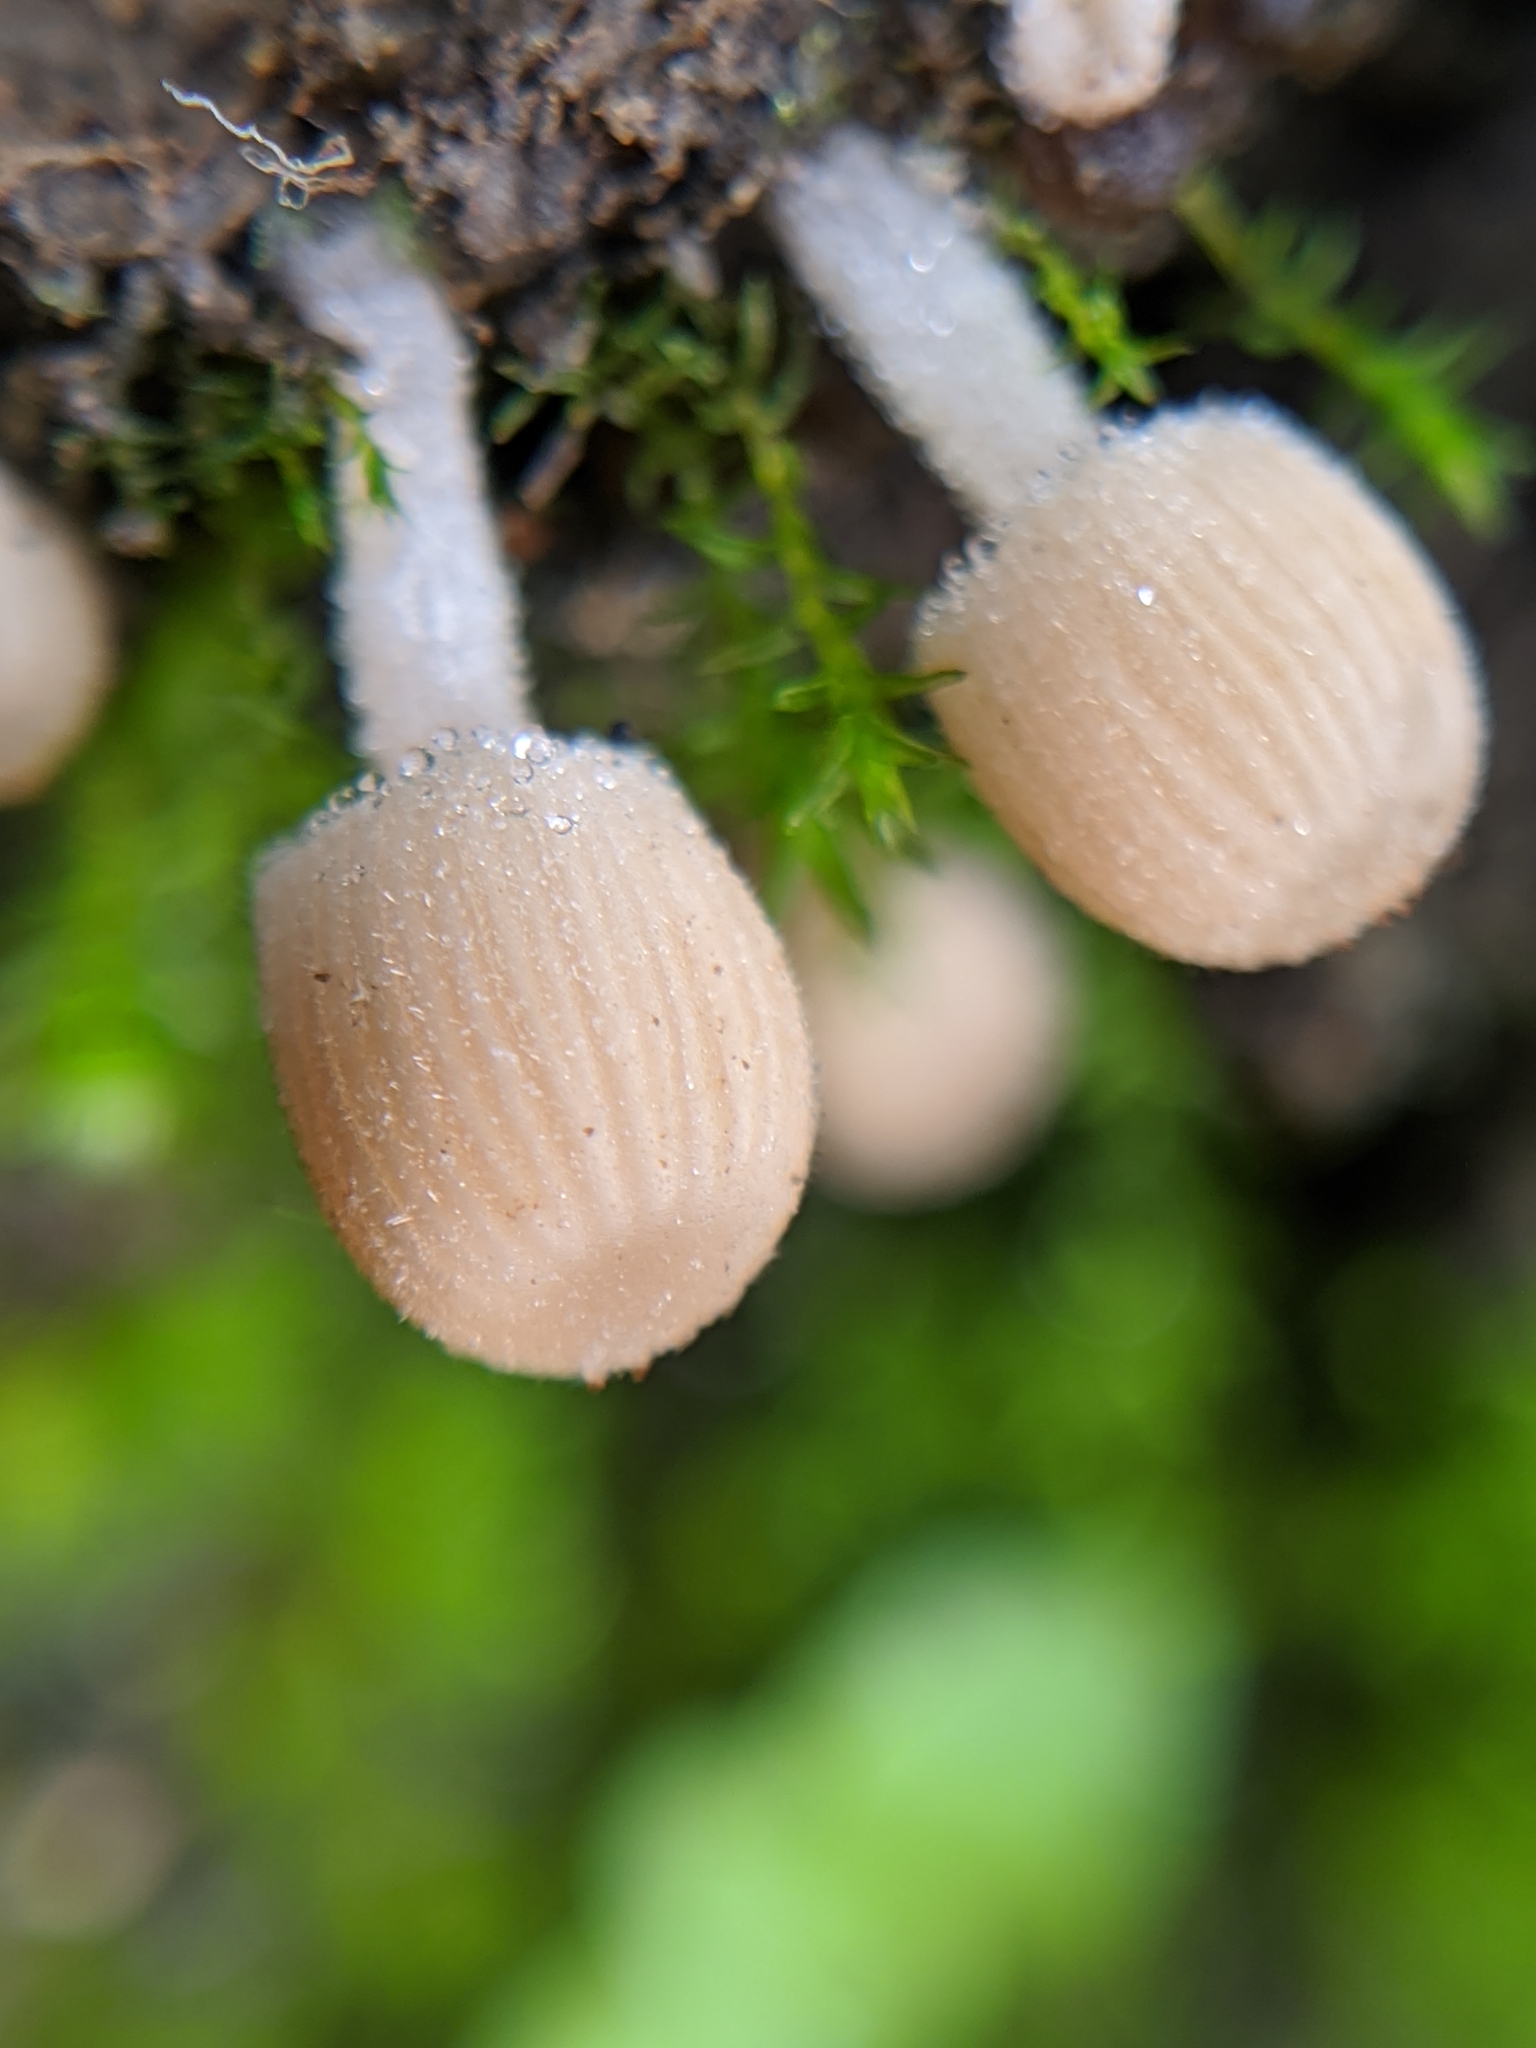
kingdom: Fungi
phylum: Basidiomycota
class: Agaricomycetes
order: Agaricales
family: Psathyrellaceae
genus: Coprinellus
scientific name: Coprinellus disseminatus
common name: Fairies' bonnets
